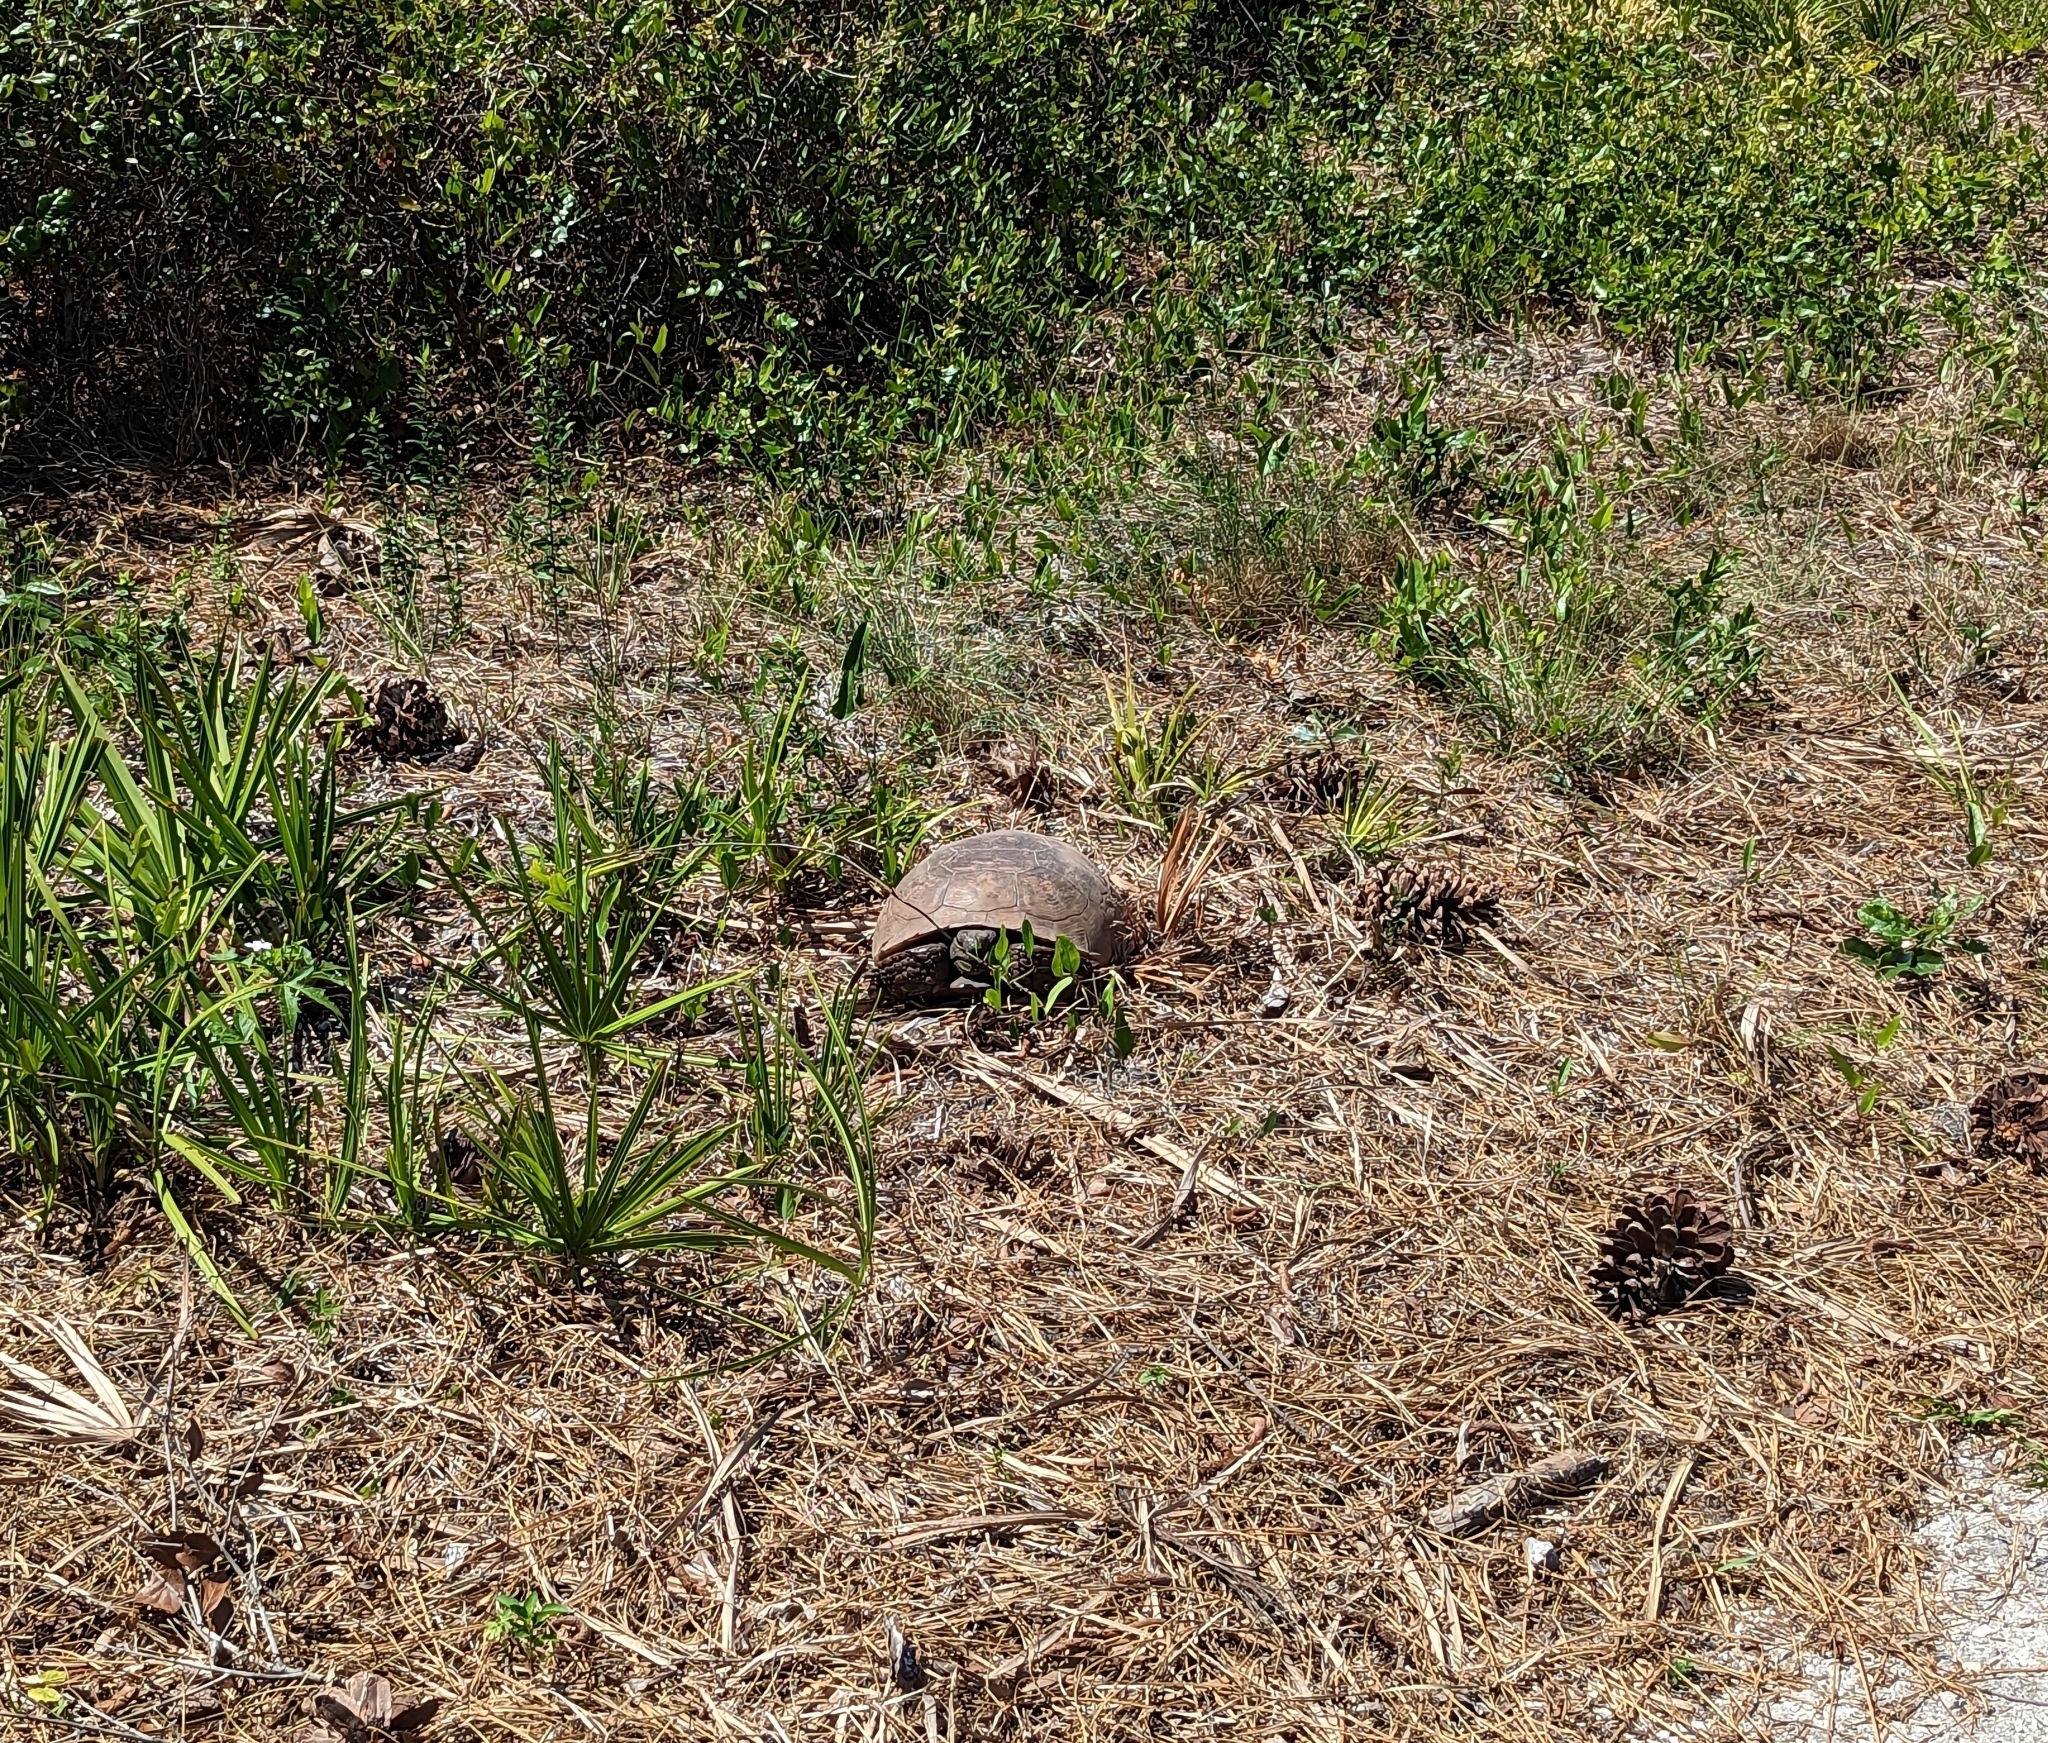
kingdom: Animalia
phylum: Chordata
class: Testudines
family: Testudinidae
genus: Gopherus
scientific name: Gopherus polyphemus
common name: Florida gopher tortoise
